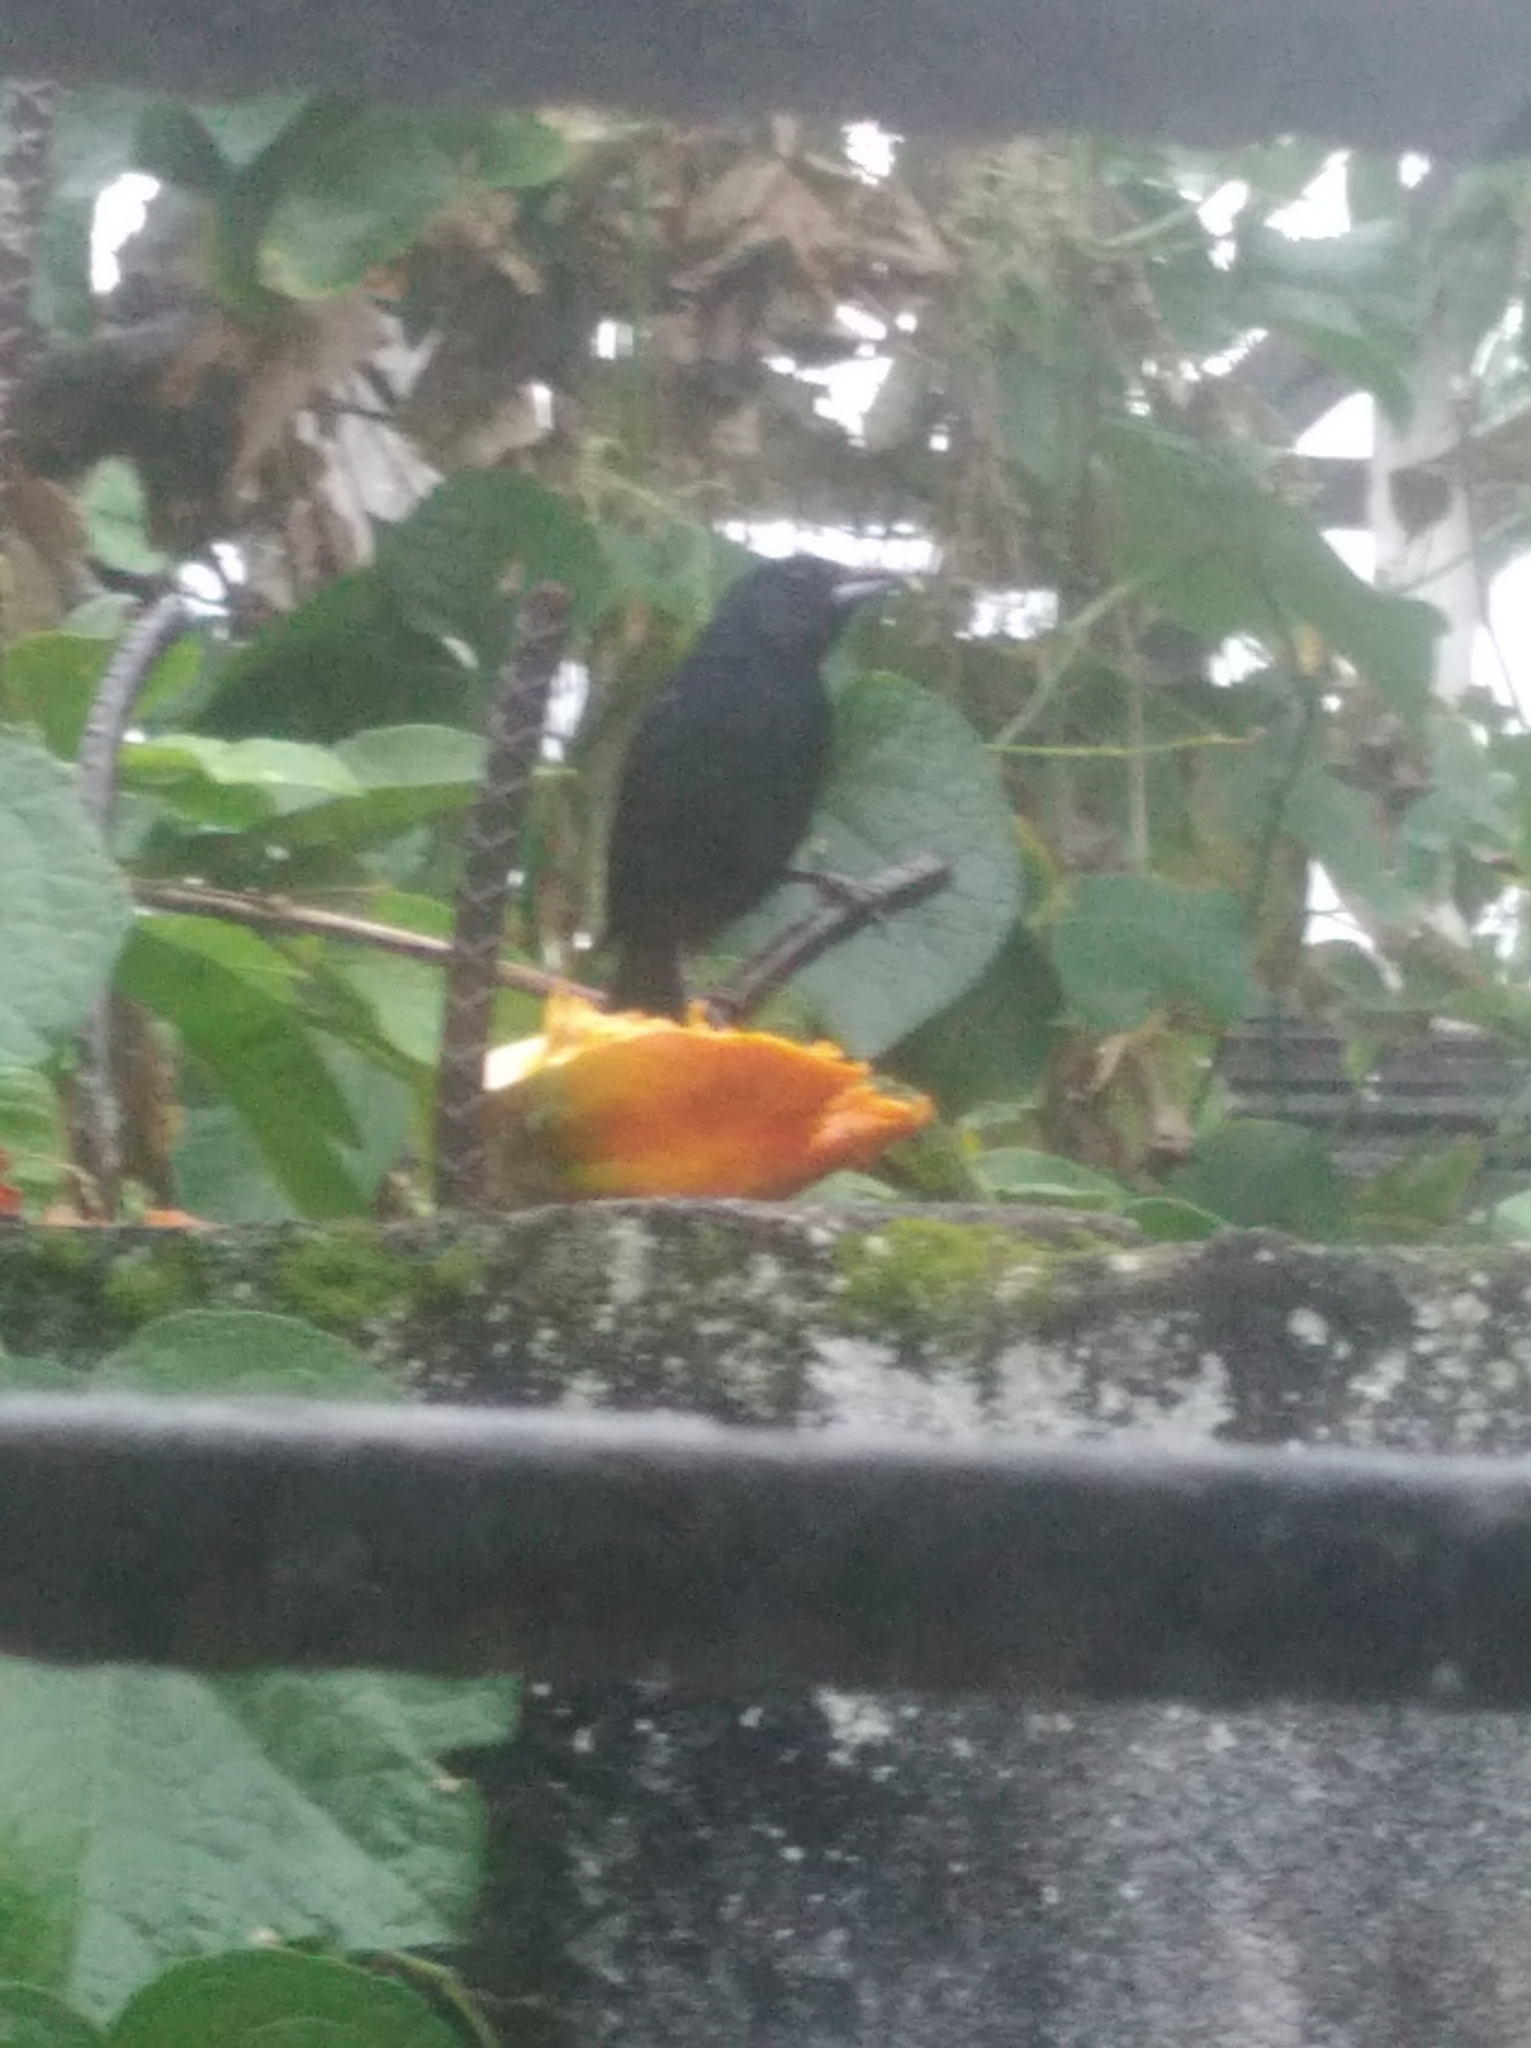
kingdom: Animalia
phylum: Chordata
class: Aves
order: Passeriformes
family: Thraupidae
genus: Tachyphonus
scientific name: Tachyphonus rufus
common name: White-lined tanager
